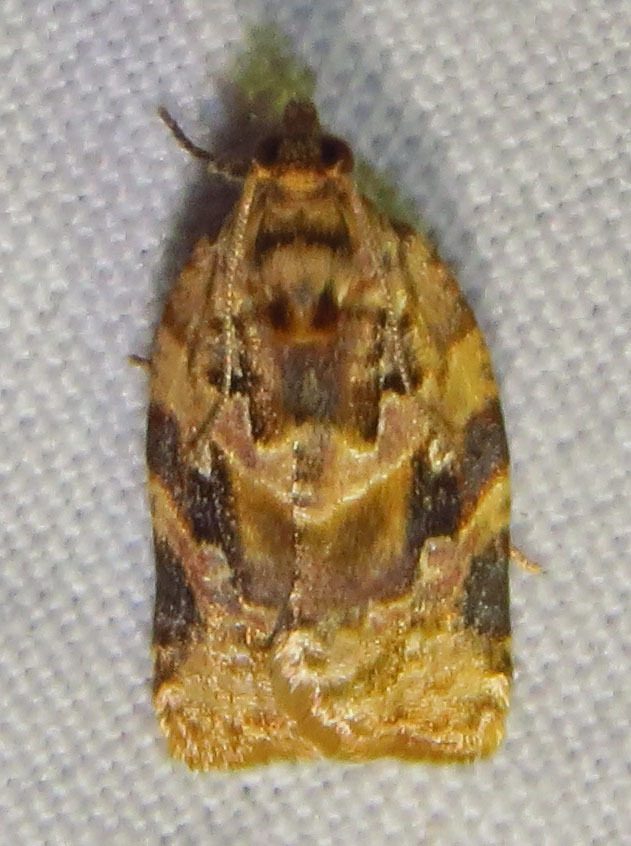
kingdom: Animalia
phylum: Arthropoda
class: Insecta
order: Lepidoptera
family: Tortricidae
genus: Argyrotaenia
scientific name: Argyrotaenia velutinana
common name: Red-banded leafroller moth
